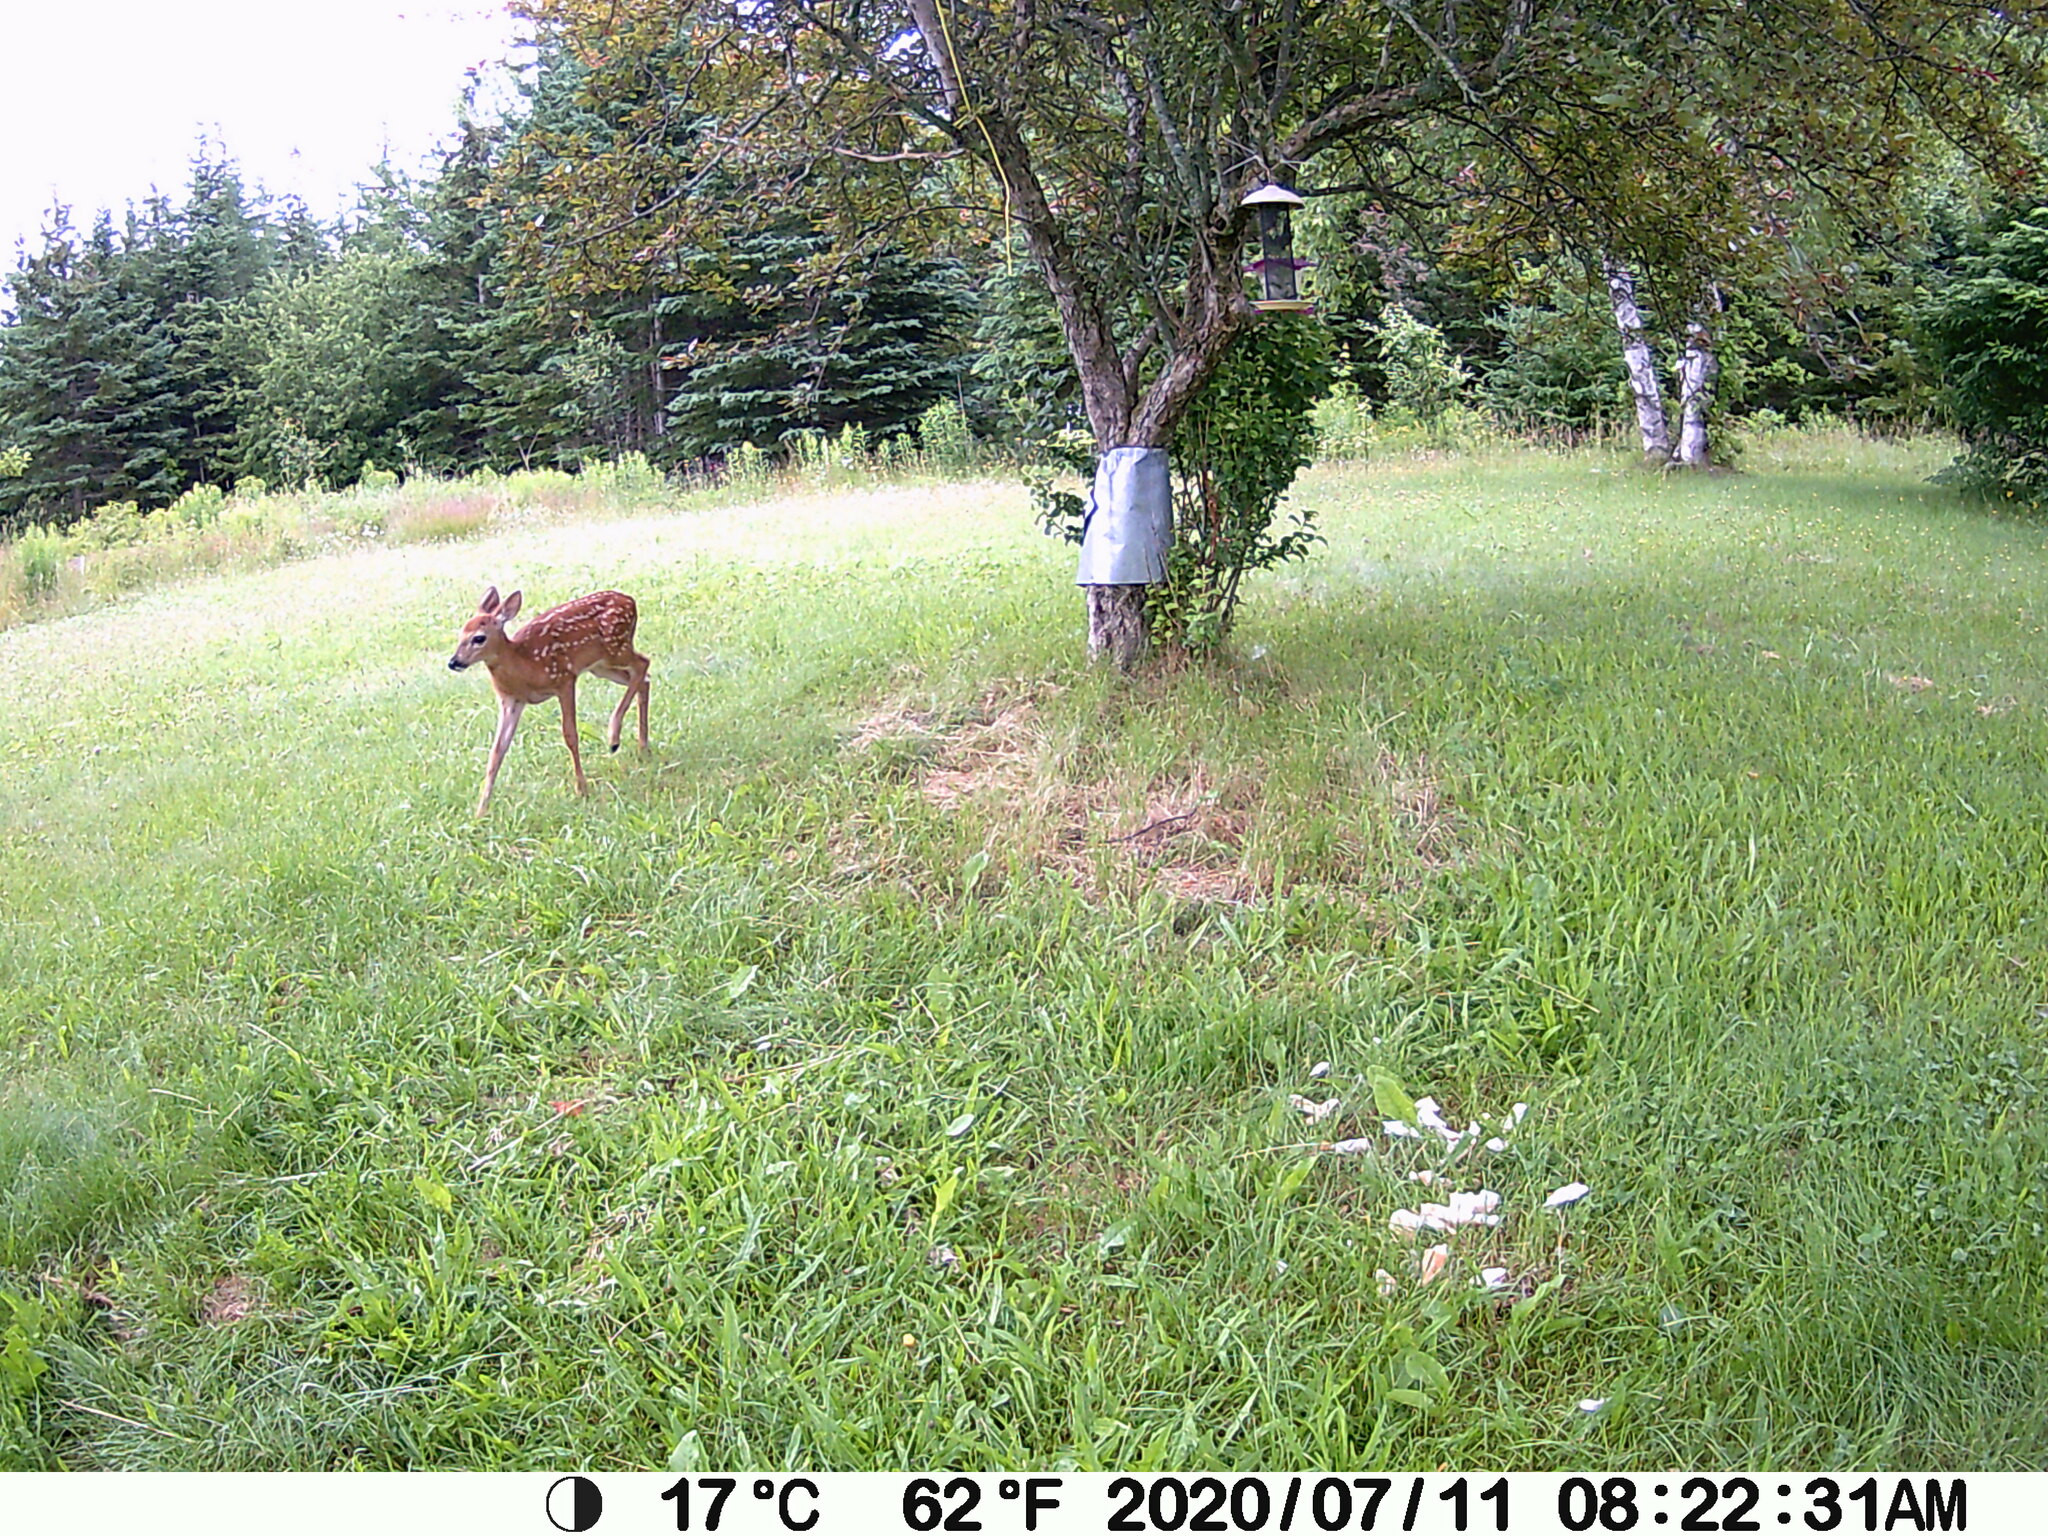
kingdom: Animalia
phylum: Chordata
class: Mammalia
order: Artiodactyla
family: Cervidae
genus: Odocoileus
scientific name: Odocoileus virginianus
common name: White-tailed deer
